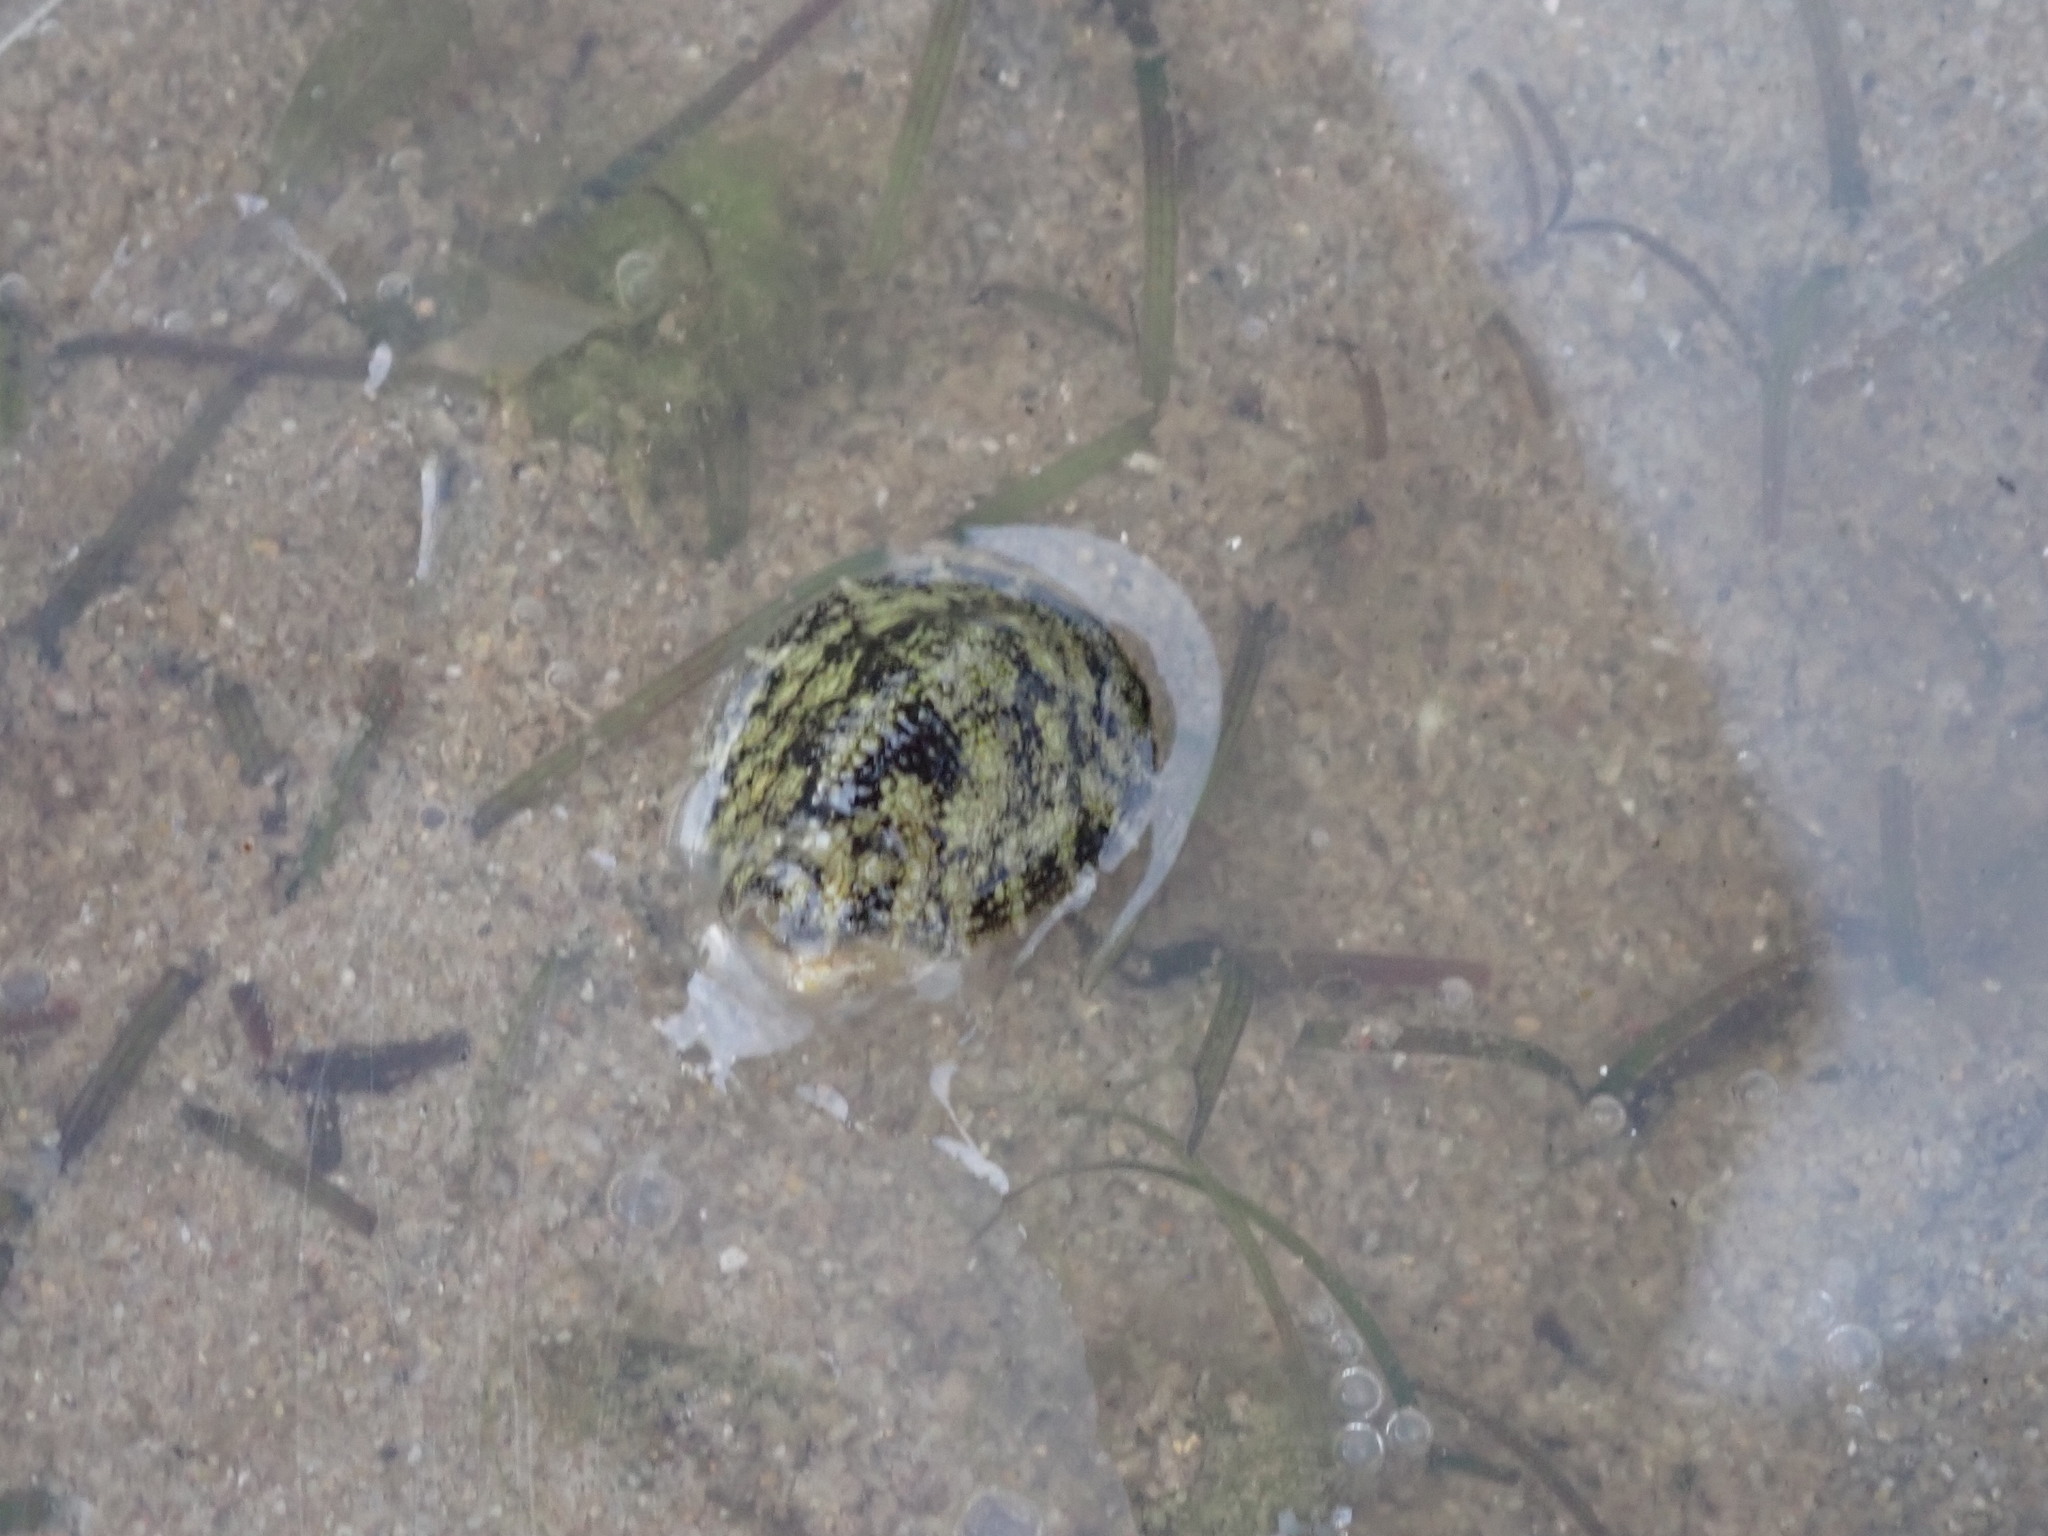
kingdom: Animalia
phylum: Mollusca
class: Gastropoda
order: Systellommatophora
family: Onchidiidae
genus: Onchidella
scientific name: Onchidella nigricans
